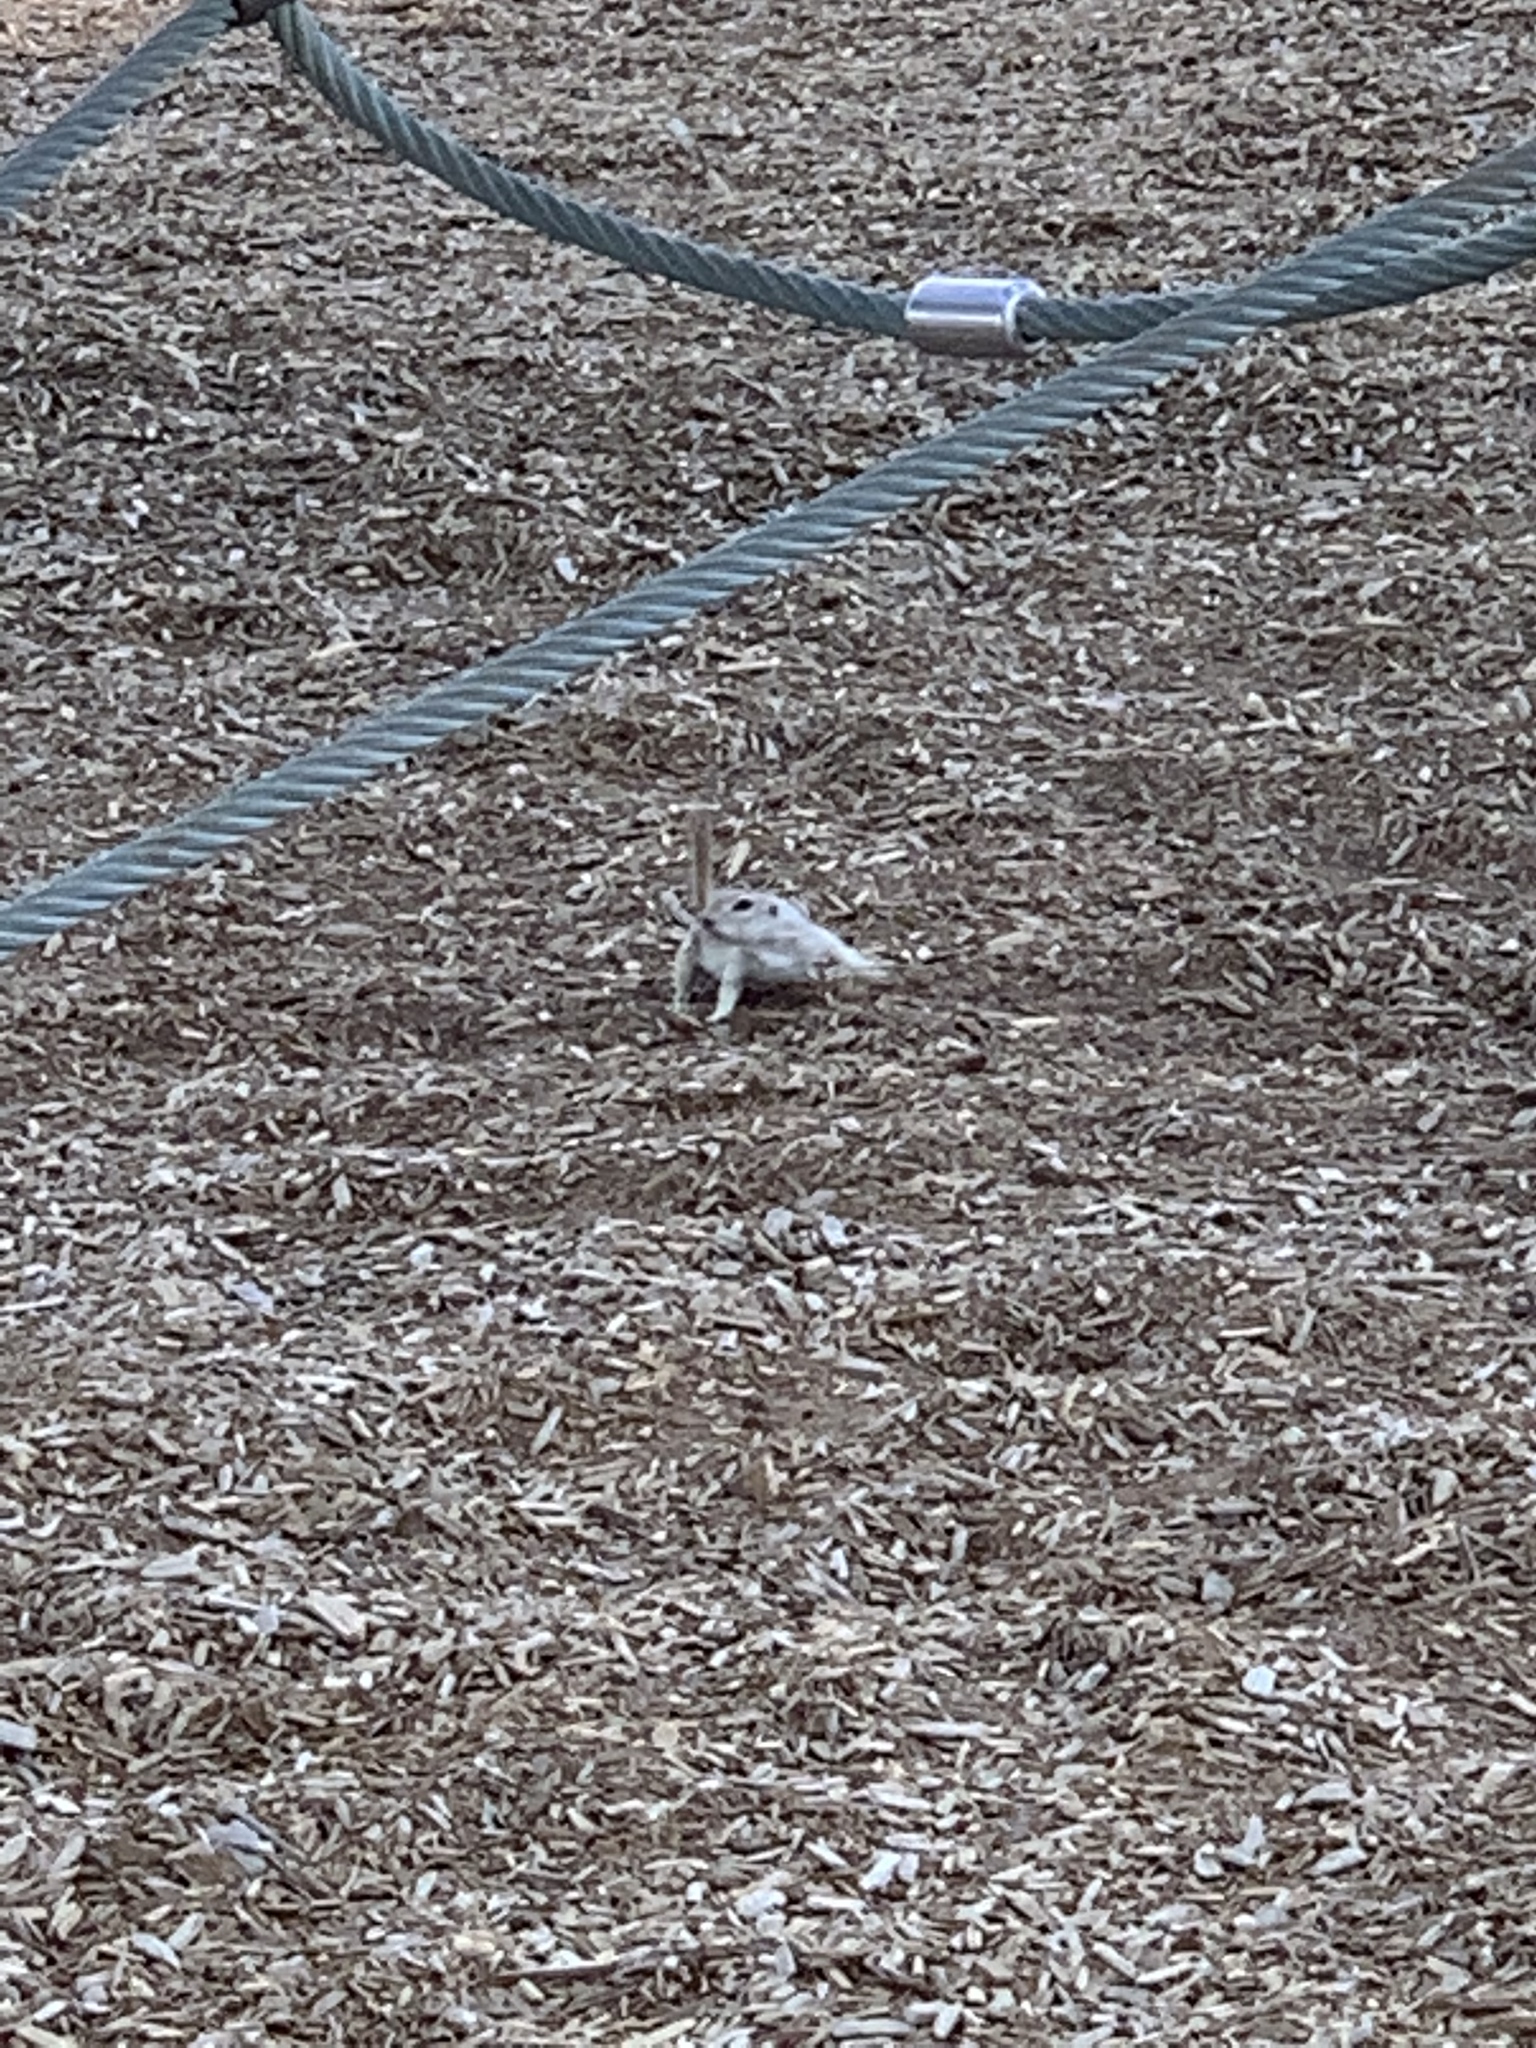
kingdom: Animalia
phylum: Chordata
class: Mammalia
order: Rodentia
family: Sciuridae
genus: Xerospermophilus
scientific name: Xerospermophilus tereticaudus
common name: Round-tailed ground squirrel
